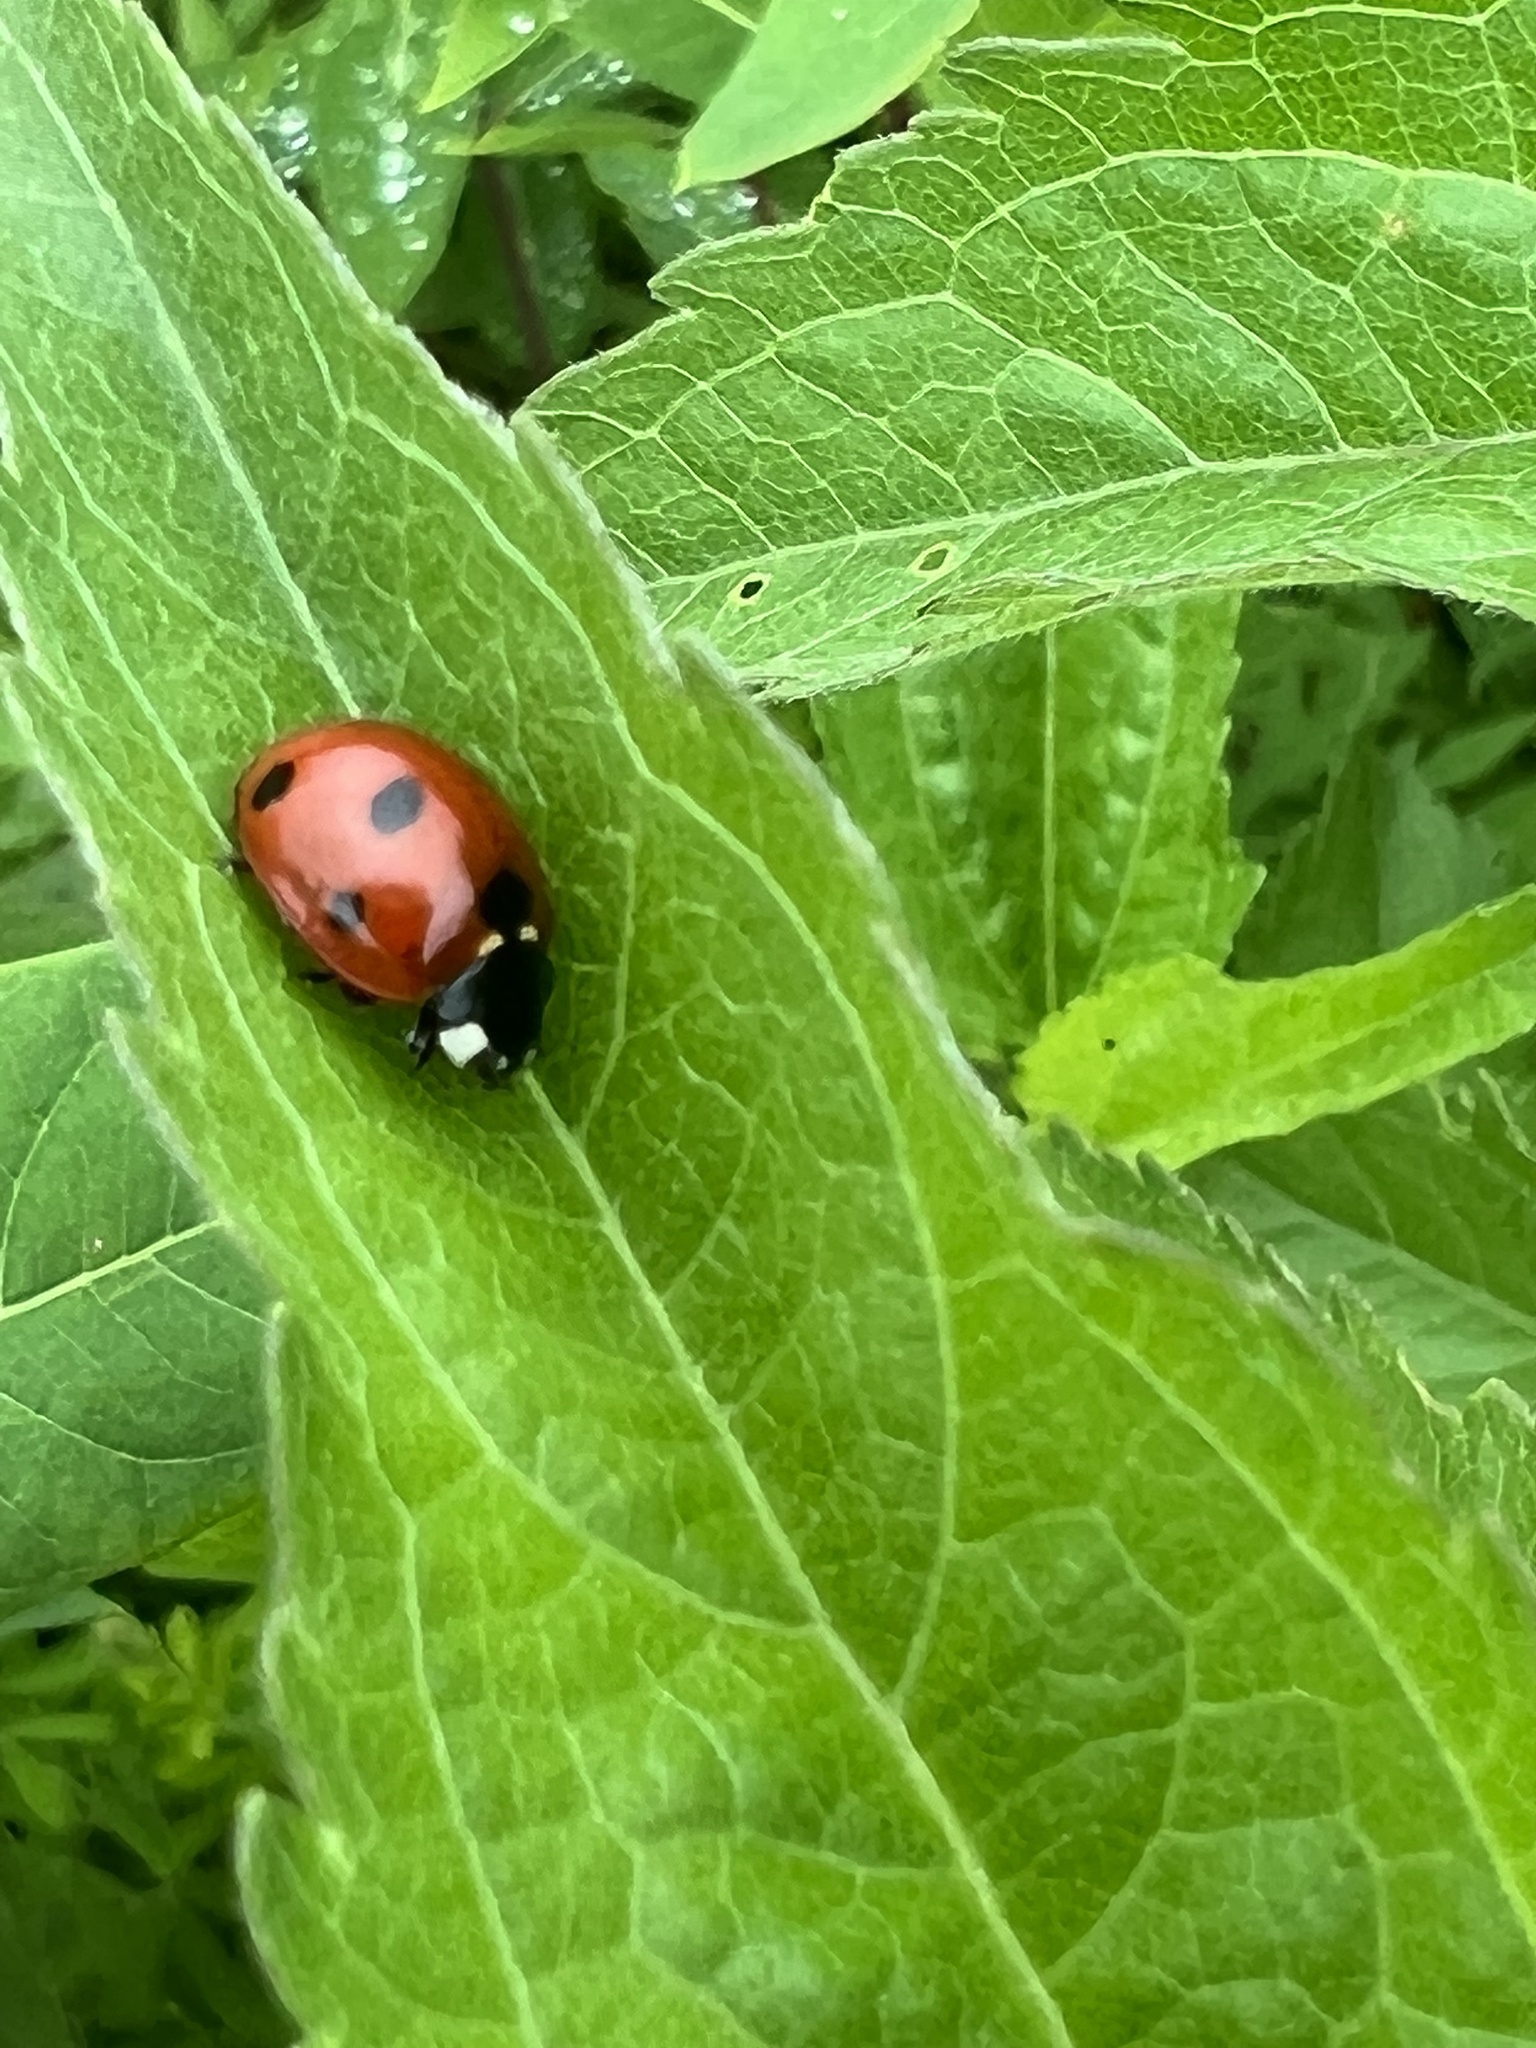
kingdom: Animalia
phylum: Arthropoda
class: Insecta
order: Coleoptera
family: Coccinellidae
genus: Coccinella
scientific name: Coccinella septempunctata
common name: Sevenspotted lady beetle
